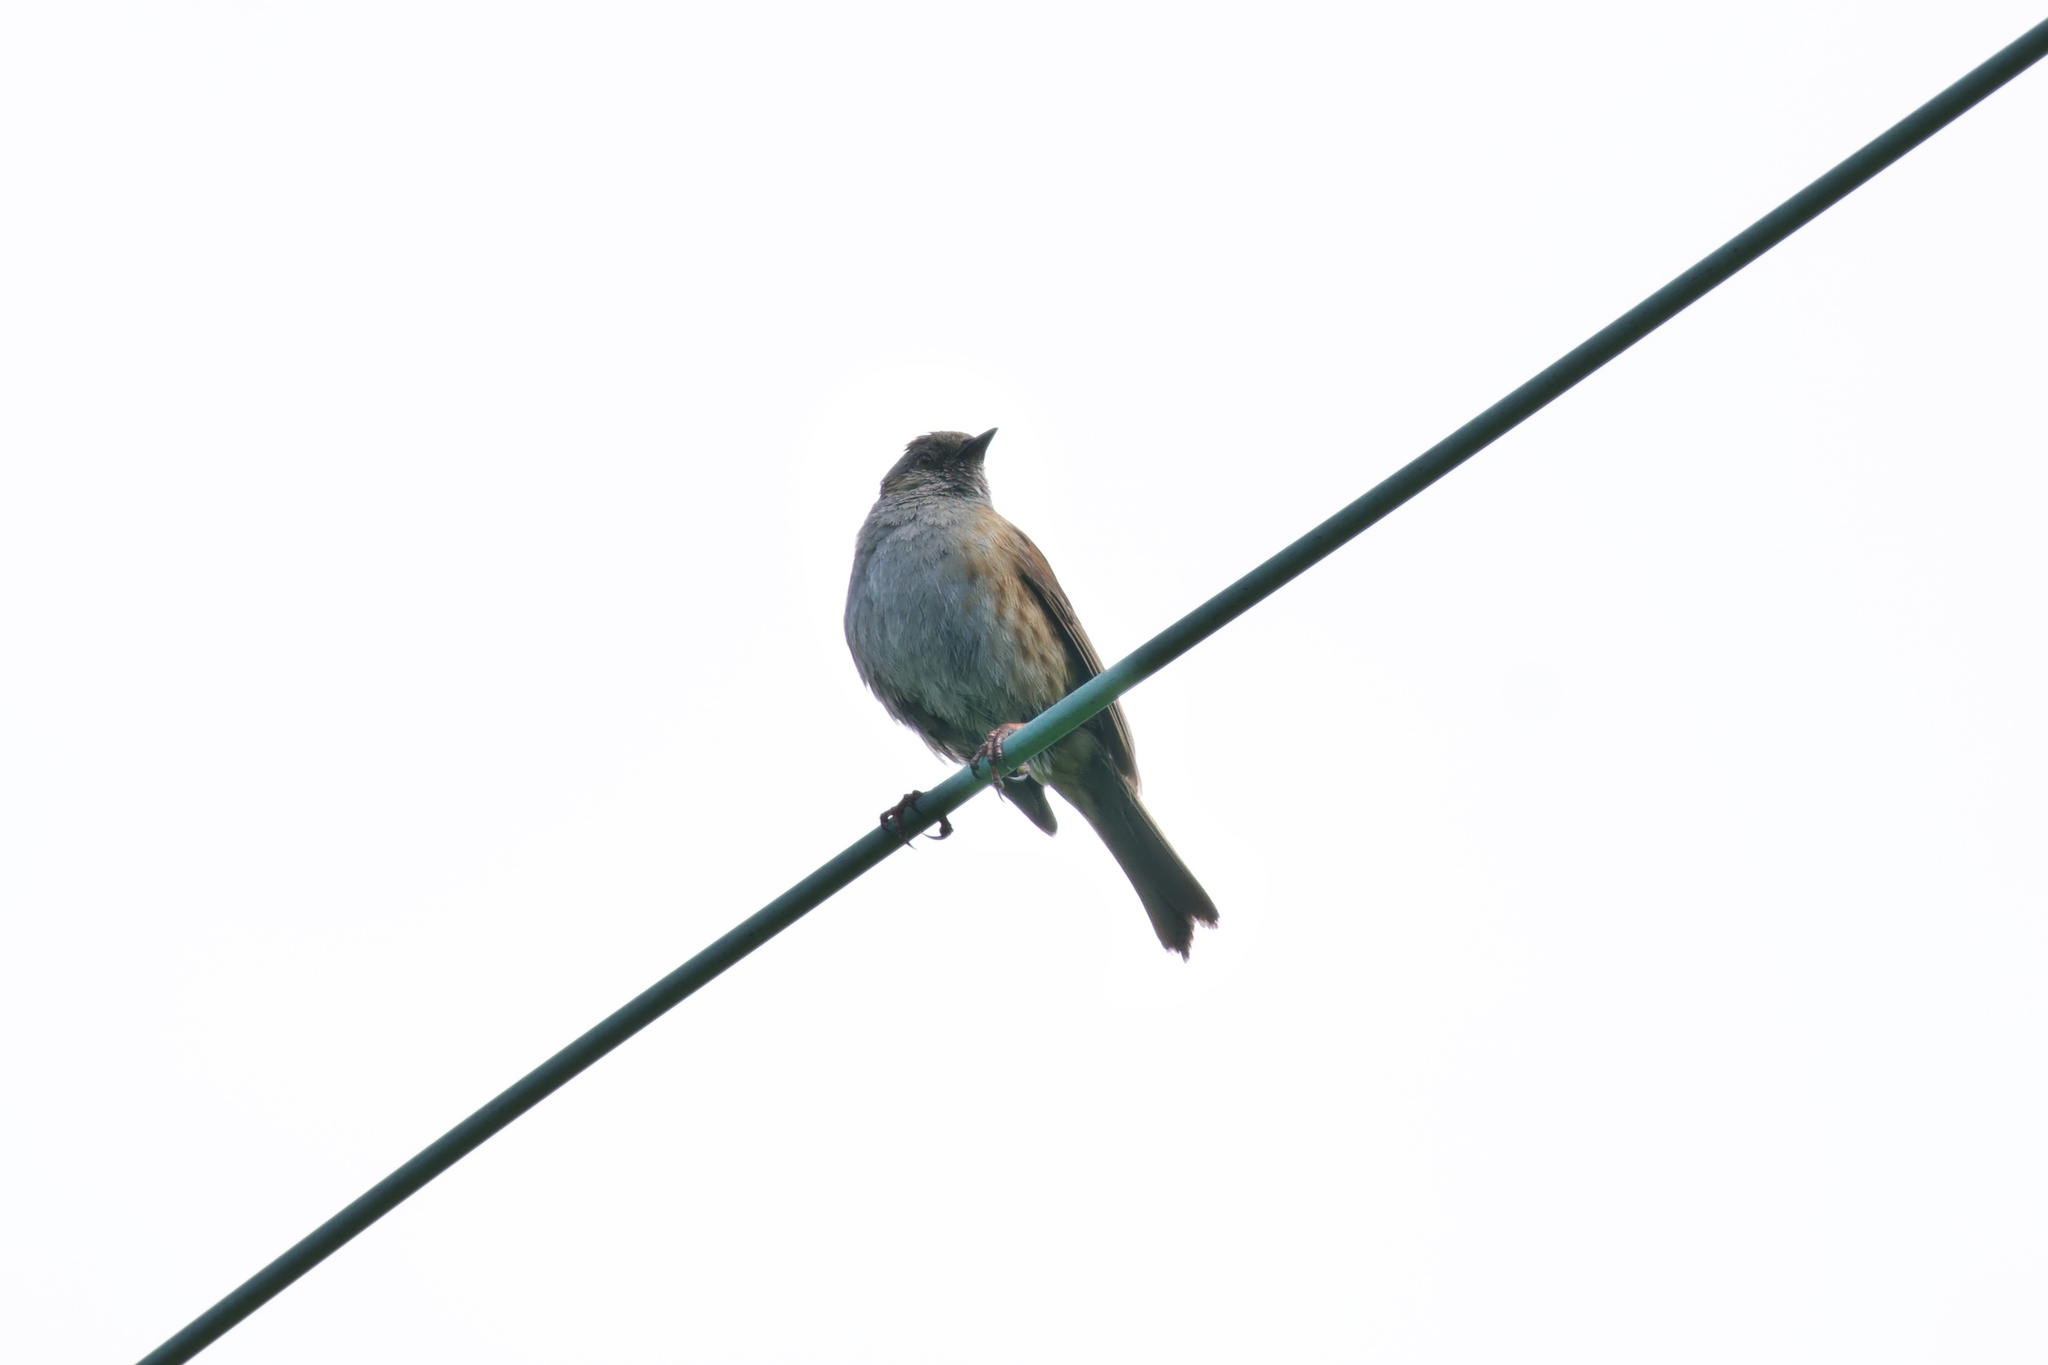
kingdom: Animalia
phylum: Chordata
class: Aves
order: Passeriformes
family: Prunellidae
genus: Prunella
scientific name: Prunella modularis
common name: Dunnock
